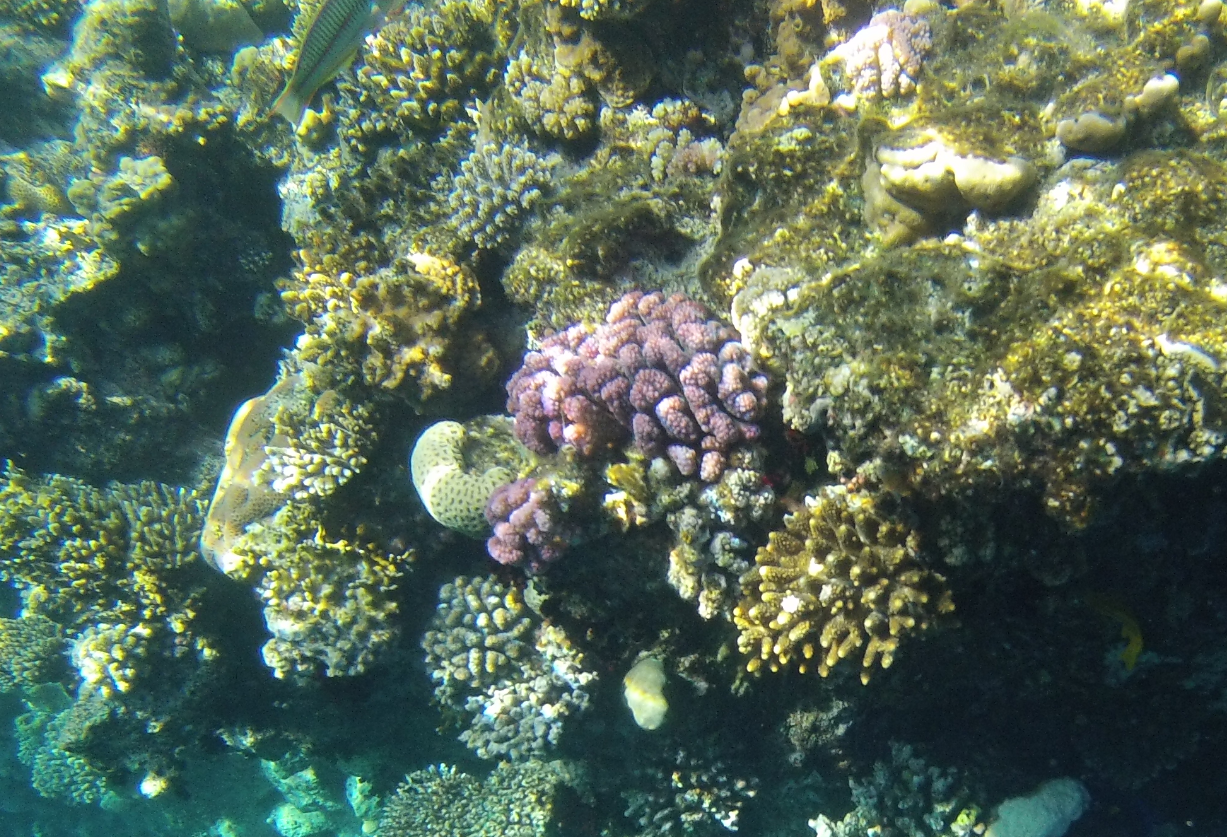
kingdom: Animalia
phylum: Cnidaria
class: Anthozoa
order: Scleractinia
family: Pocilloporidae
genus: Pocillopora
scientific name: Pocillopora verrucosa
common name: Cauliflower coral
